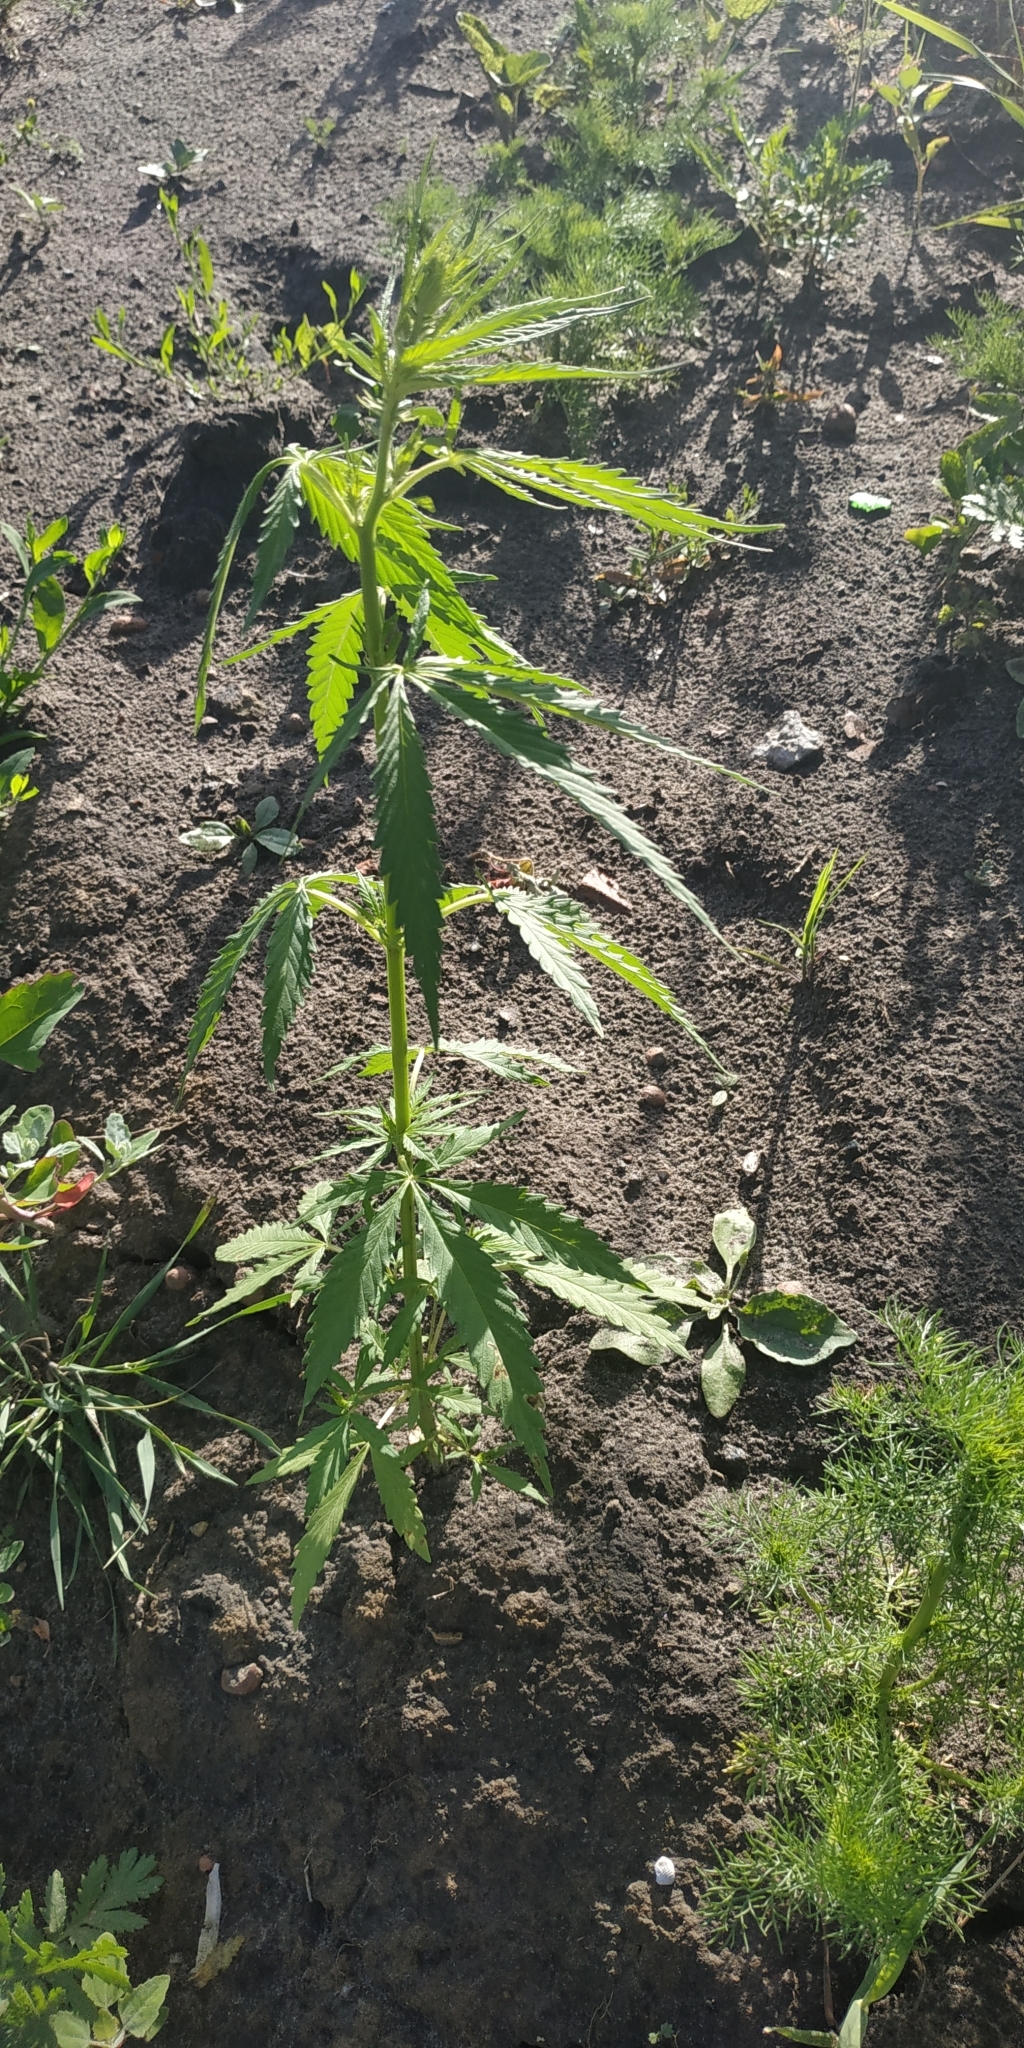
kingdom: Plantae
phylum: Tracheophyta
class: Magnoliopsida
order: Rosales
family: Cannabaceae
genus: Cannabis
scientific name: Cannabis sativa
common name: Hemp
